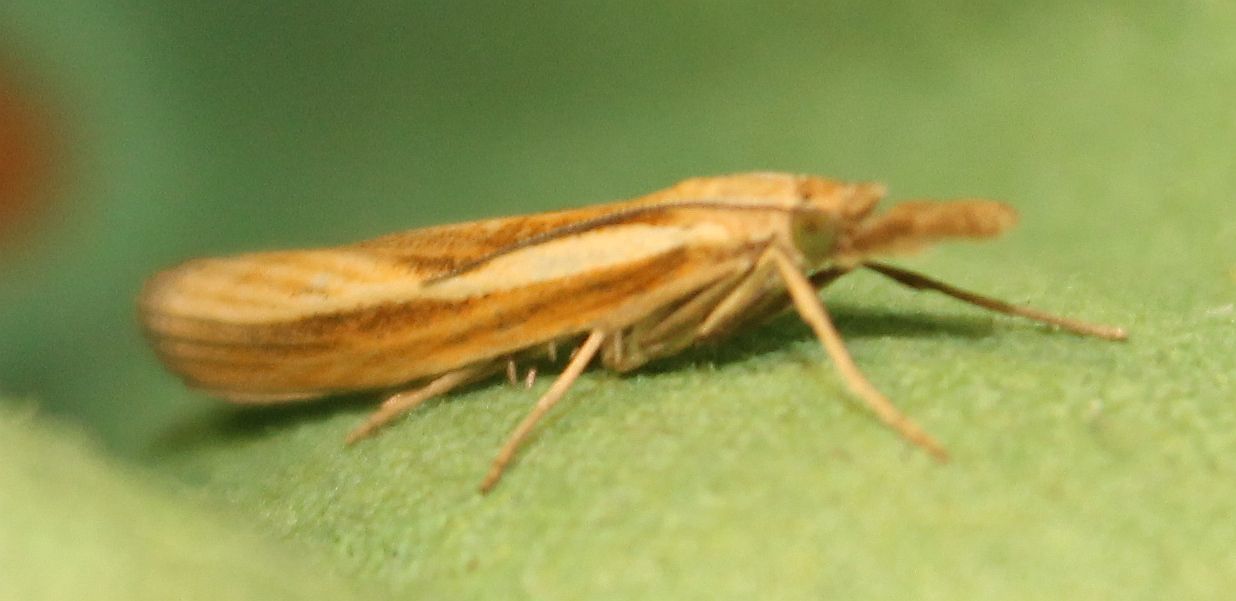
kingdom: Animalia
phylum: Arthropoda
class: Insecta
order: Lepidoptera
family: Crambidae
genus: Agriphila
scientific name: Agriphila tristellus
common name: Common grass-veneer
